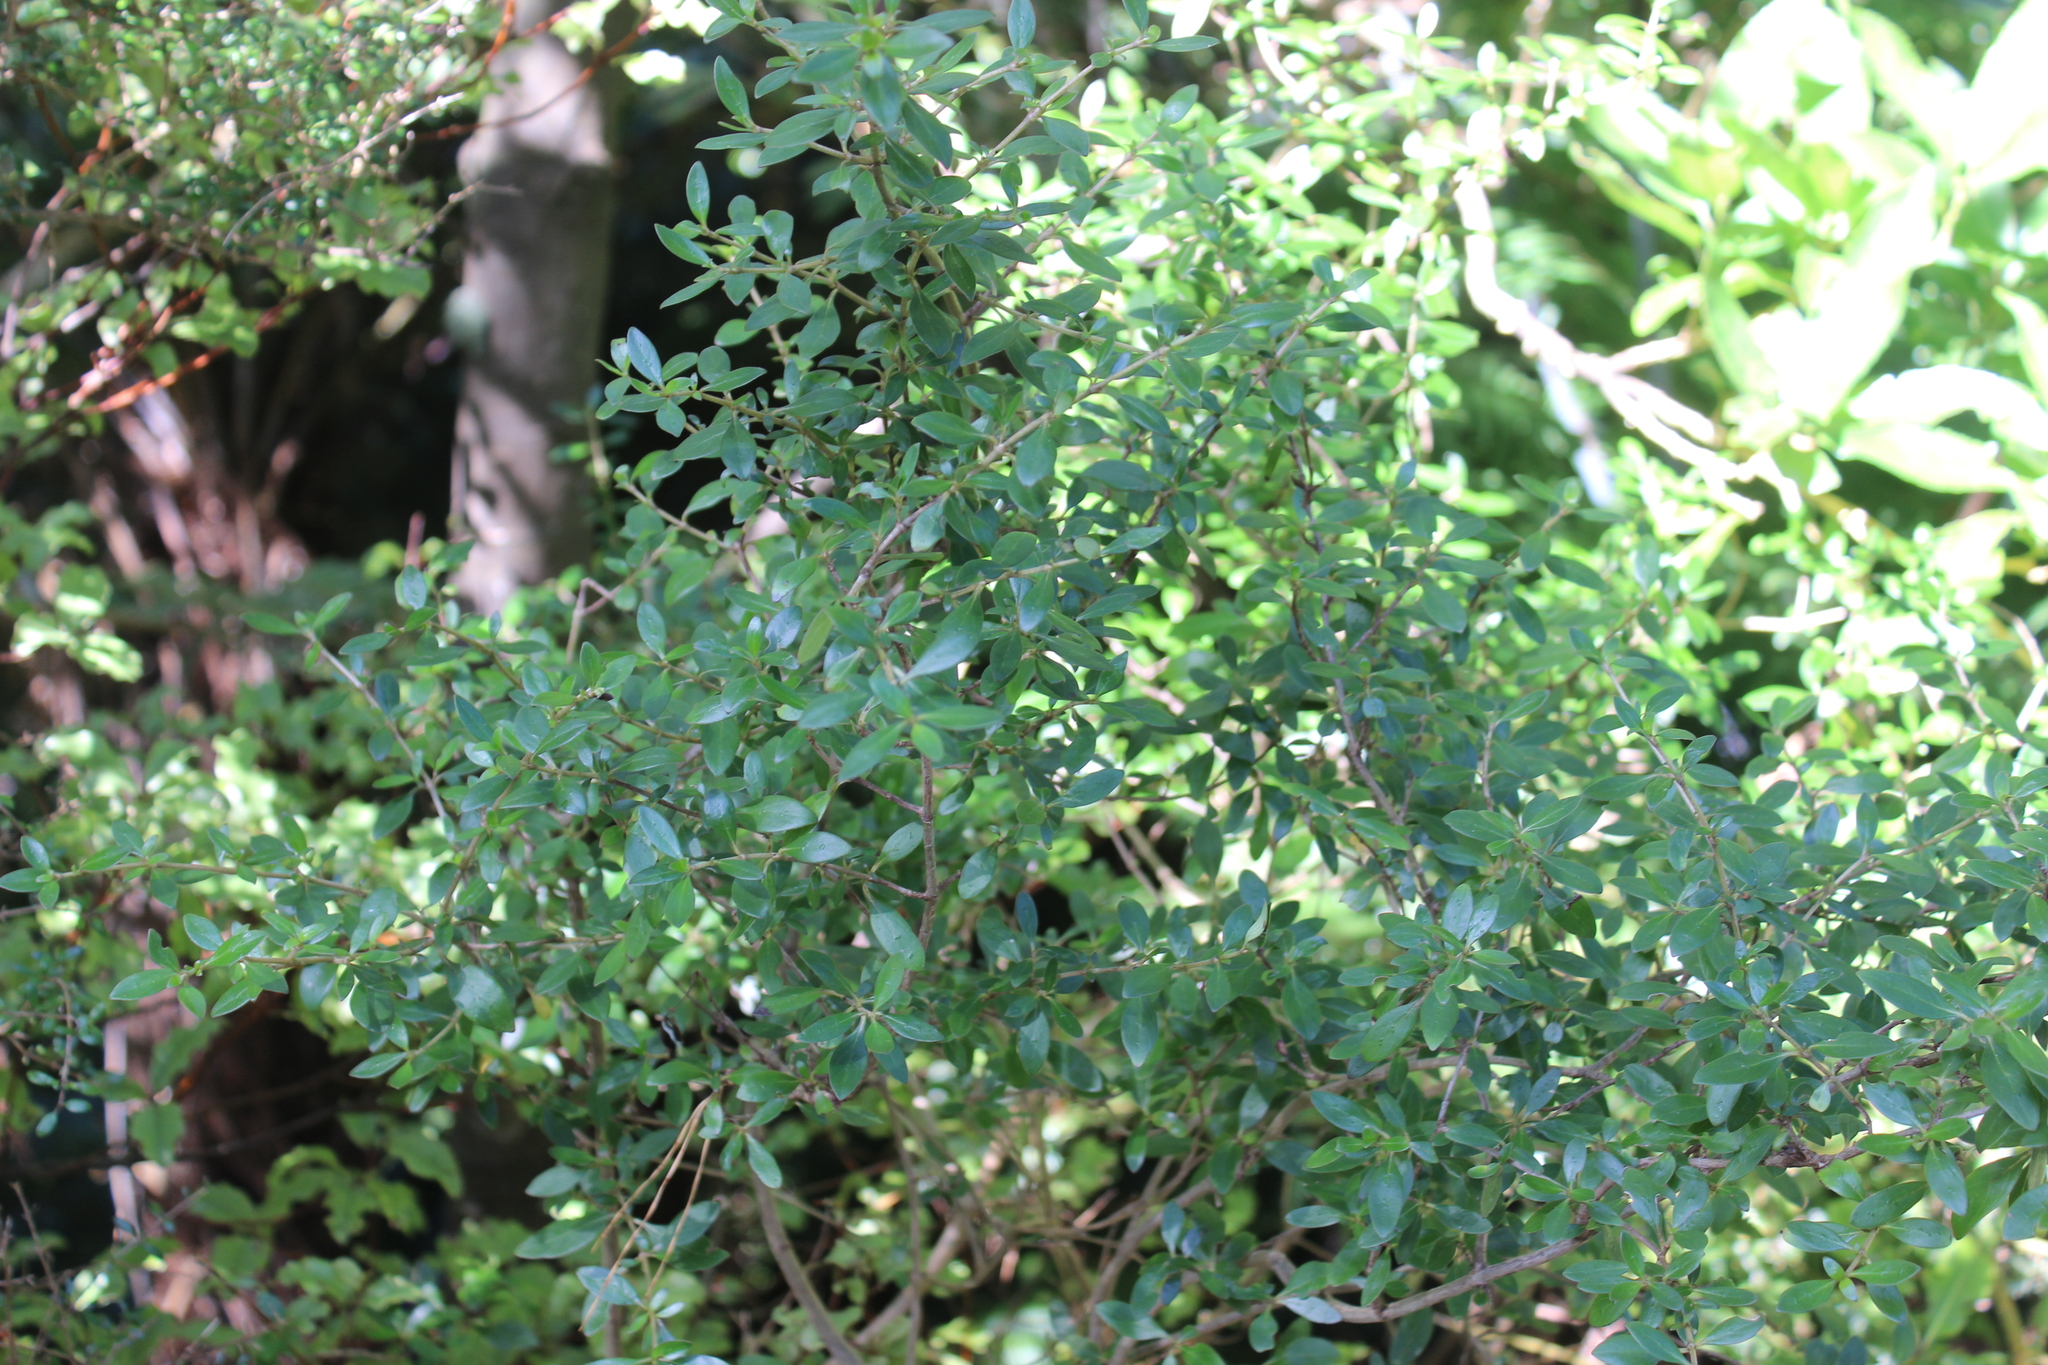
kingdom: Plantae
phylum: Tracheophyta
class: Magnoliopsida
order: Gentianales
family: Rubiaceae
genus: Coprosma
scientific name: Coprosma cunninghamii
